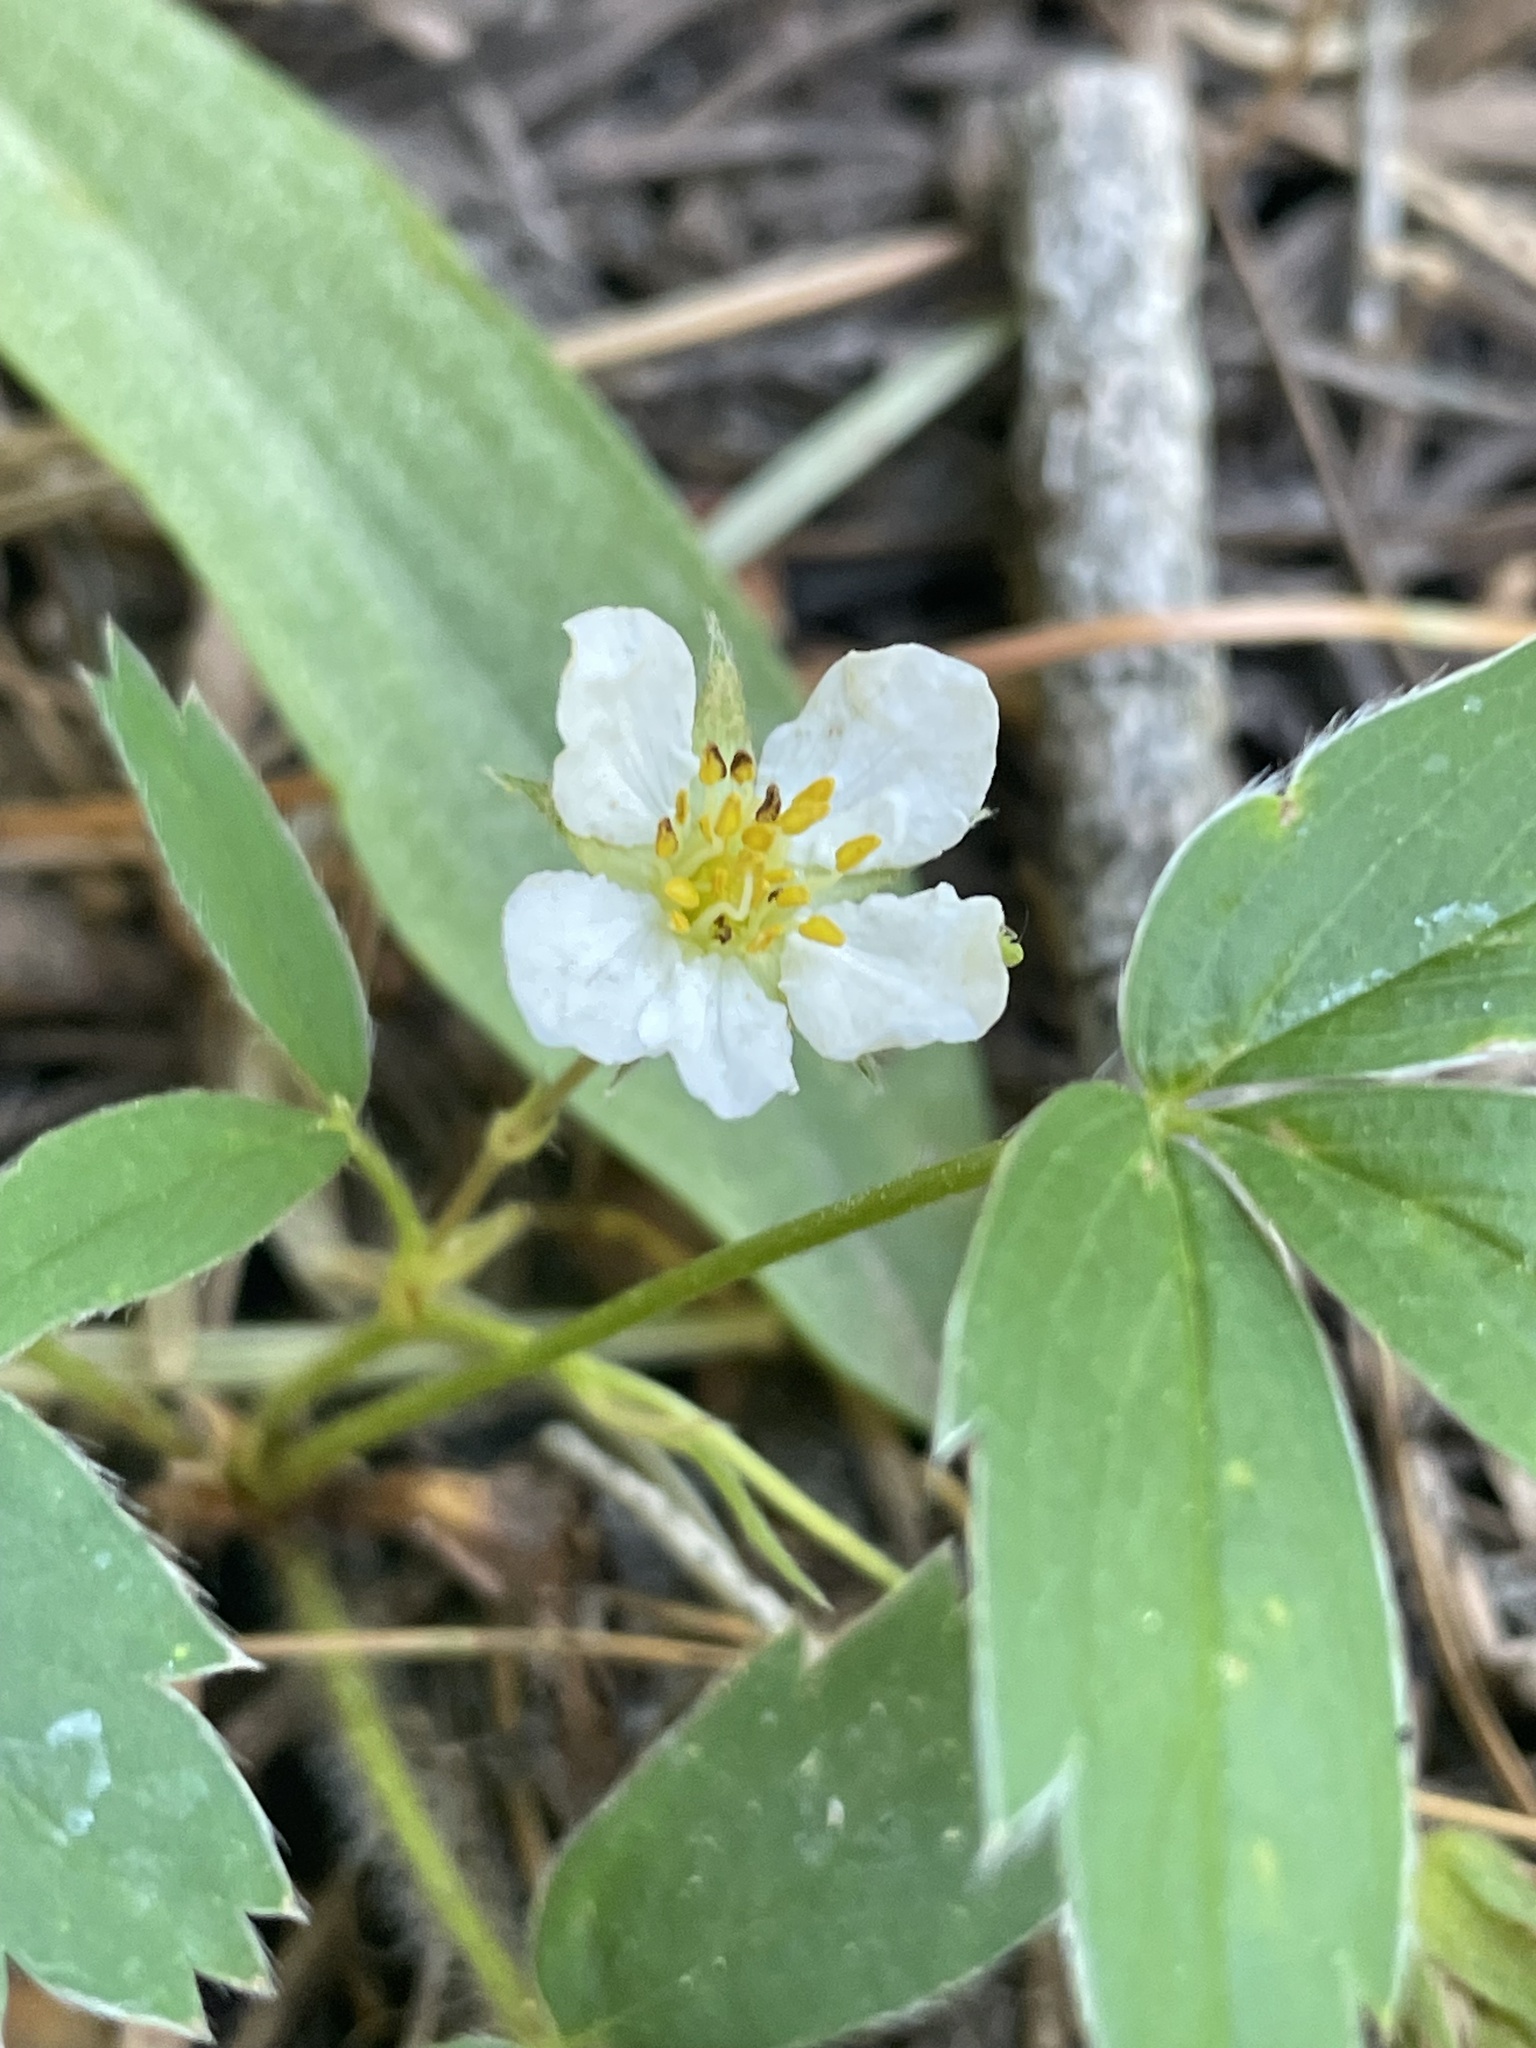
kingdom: Plantae
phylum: Tracheophyta
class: Magnoliopsida
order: Rosales
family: Rosaceae
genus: Fragaria
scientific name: Fragaria virginiana
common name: Thickleaved wild strawberry
